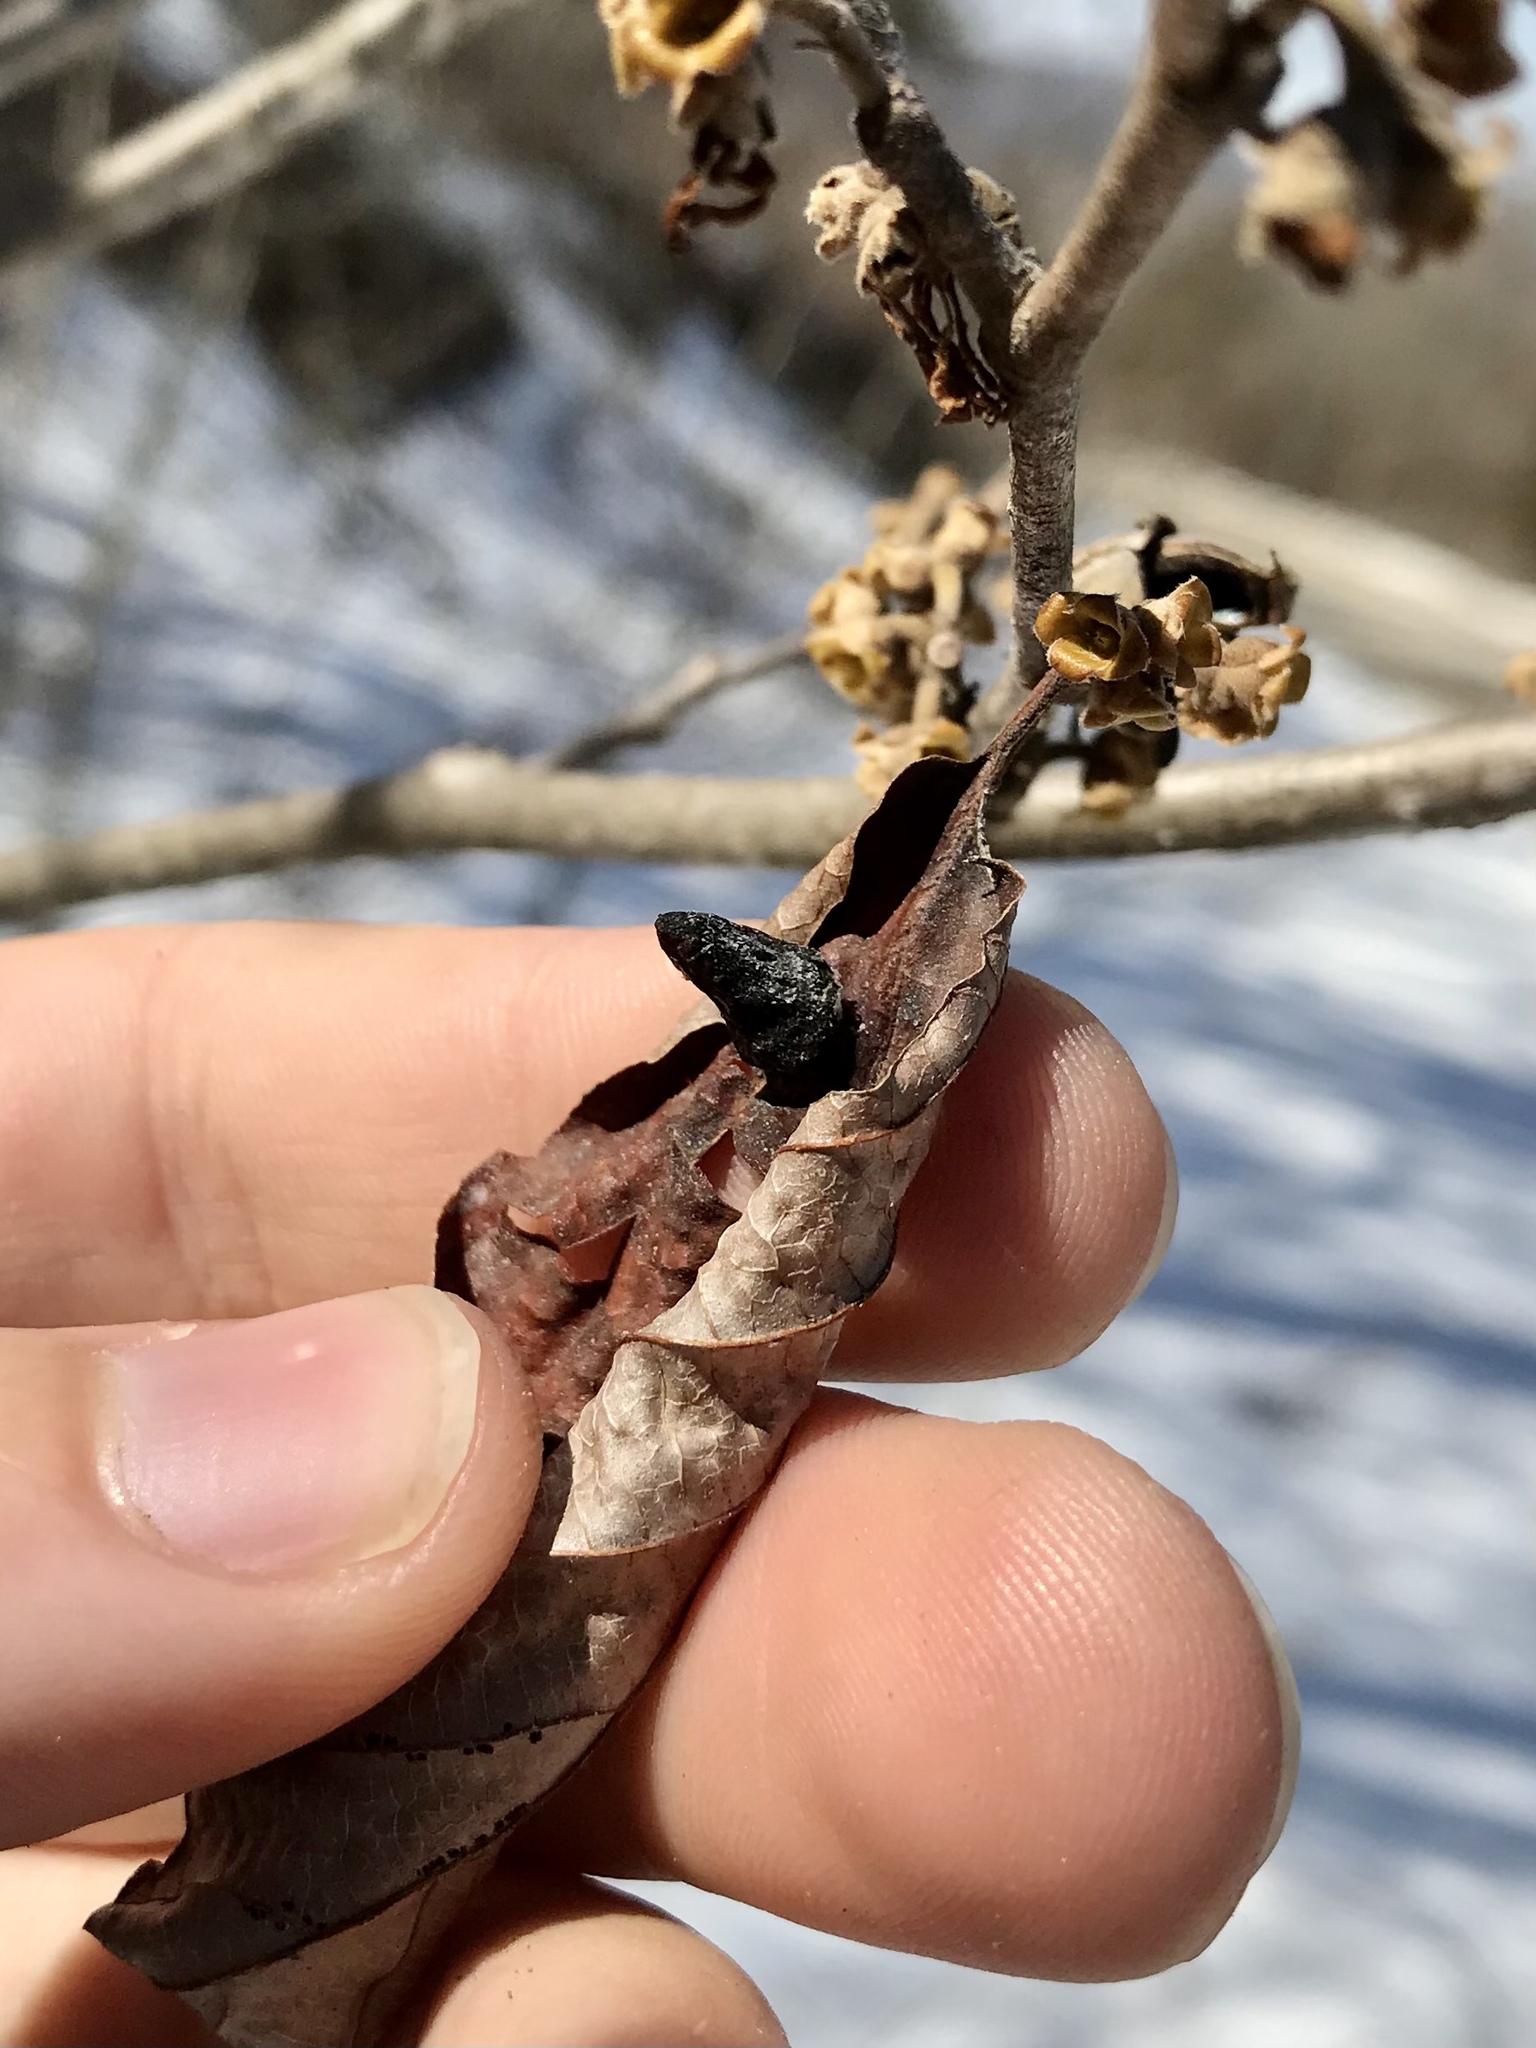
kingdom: Animalia
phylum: Arthropoda
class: Insecta
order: Hemiptera
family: Aphididae
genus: Hormaphis
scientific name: Hormaphis hamamelidis
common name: Witch-hazel cone gall aphid
